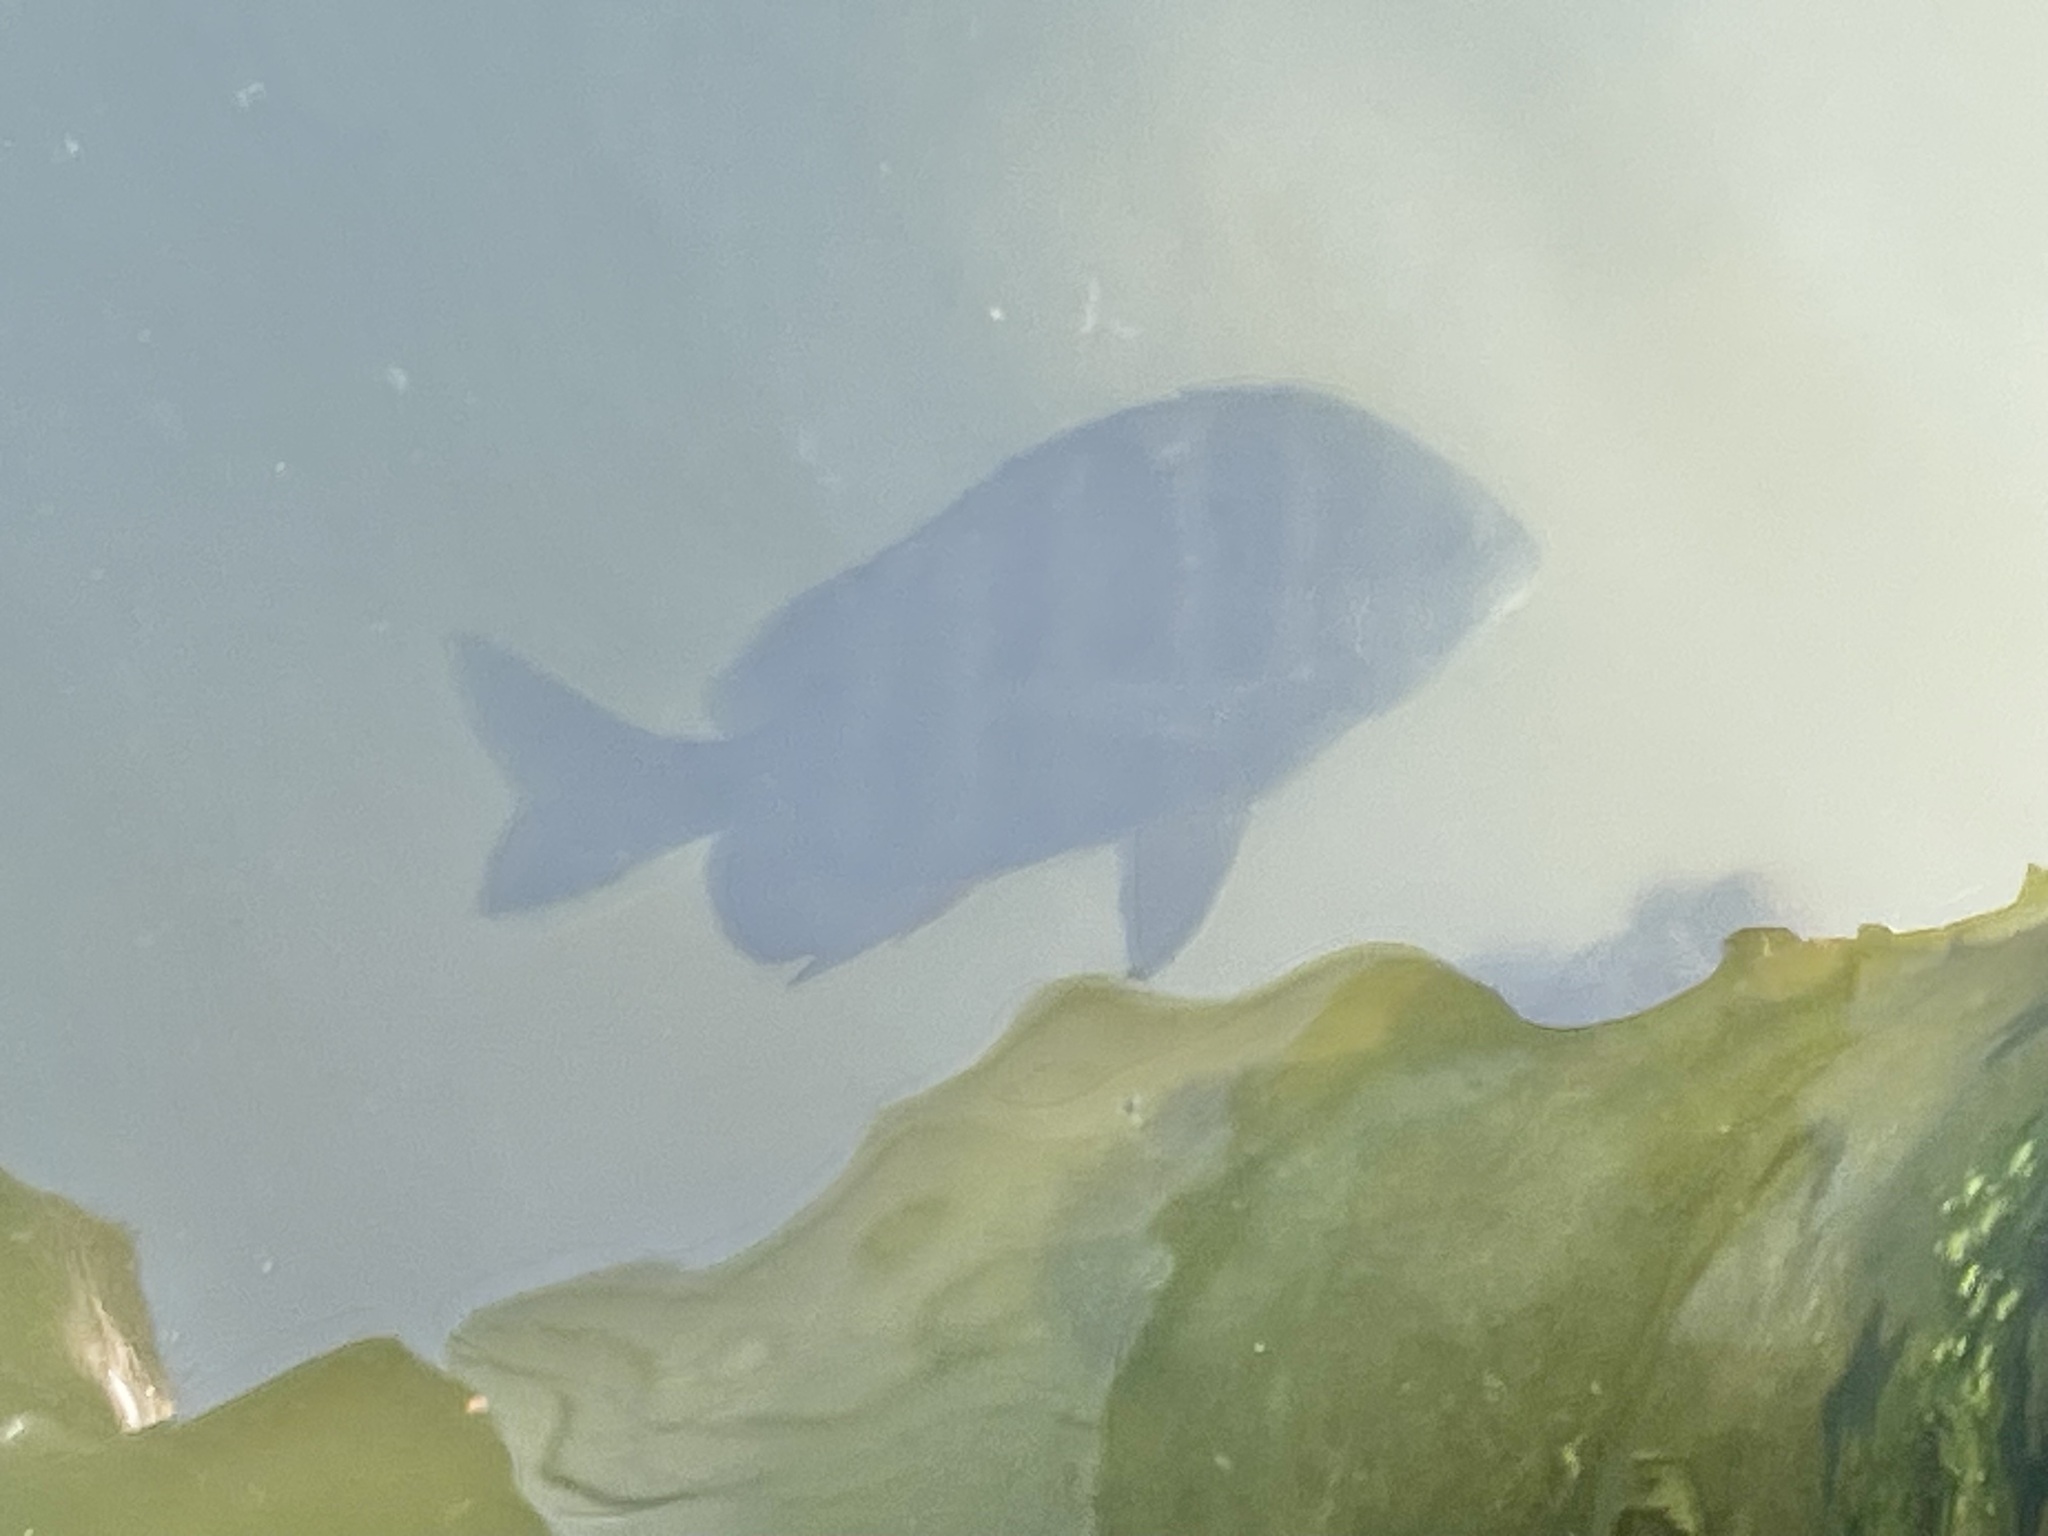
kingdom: Animalia
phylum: Chordata
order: Perciformes
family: Sparidae
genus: Archosargus
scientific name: Archosargus probatocephalus
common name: Sheepshead
